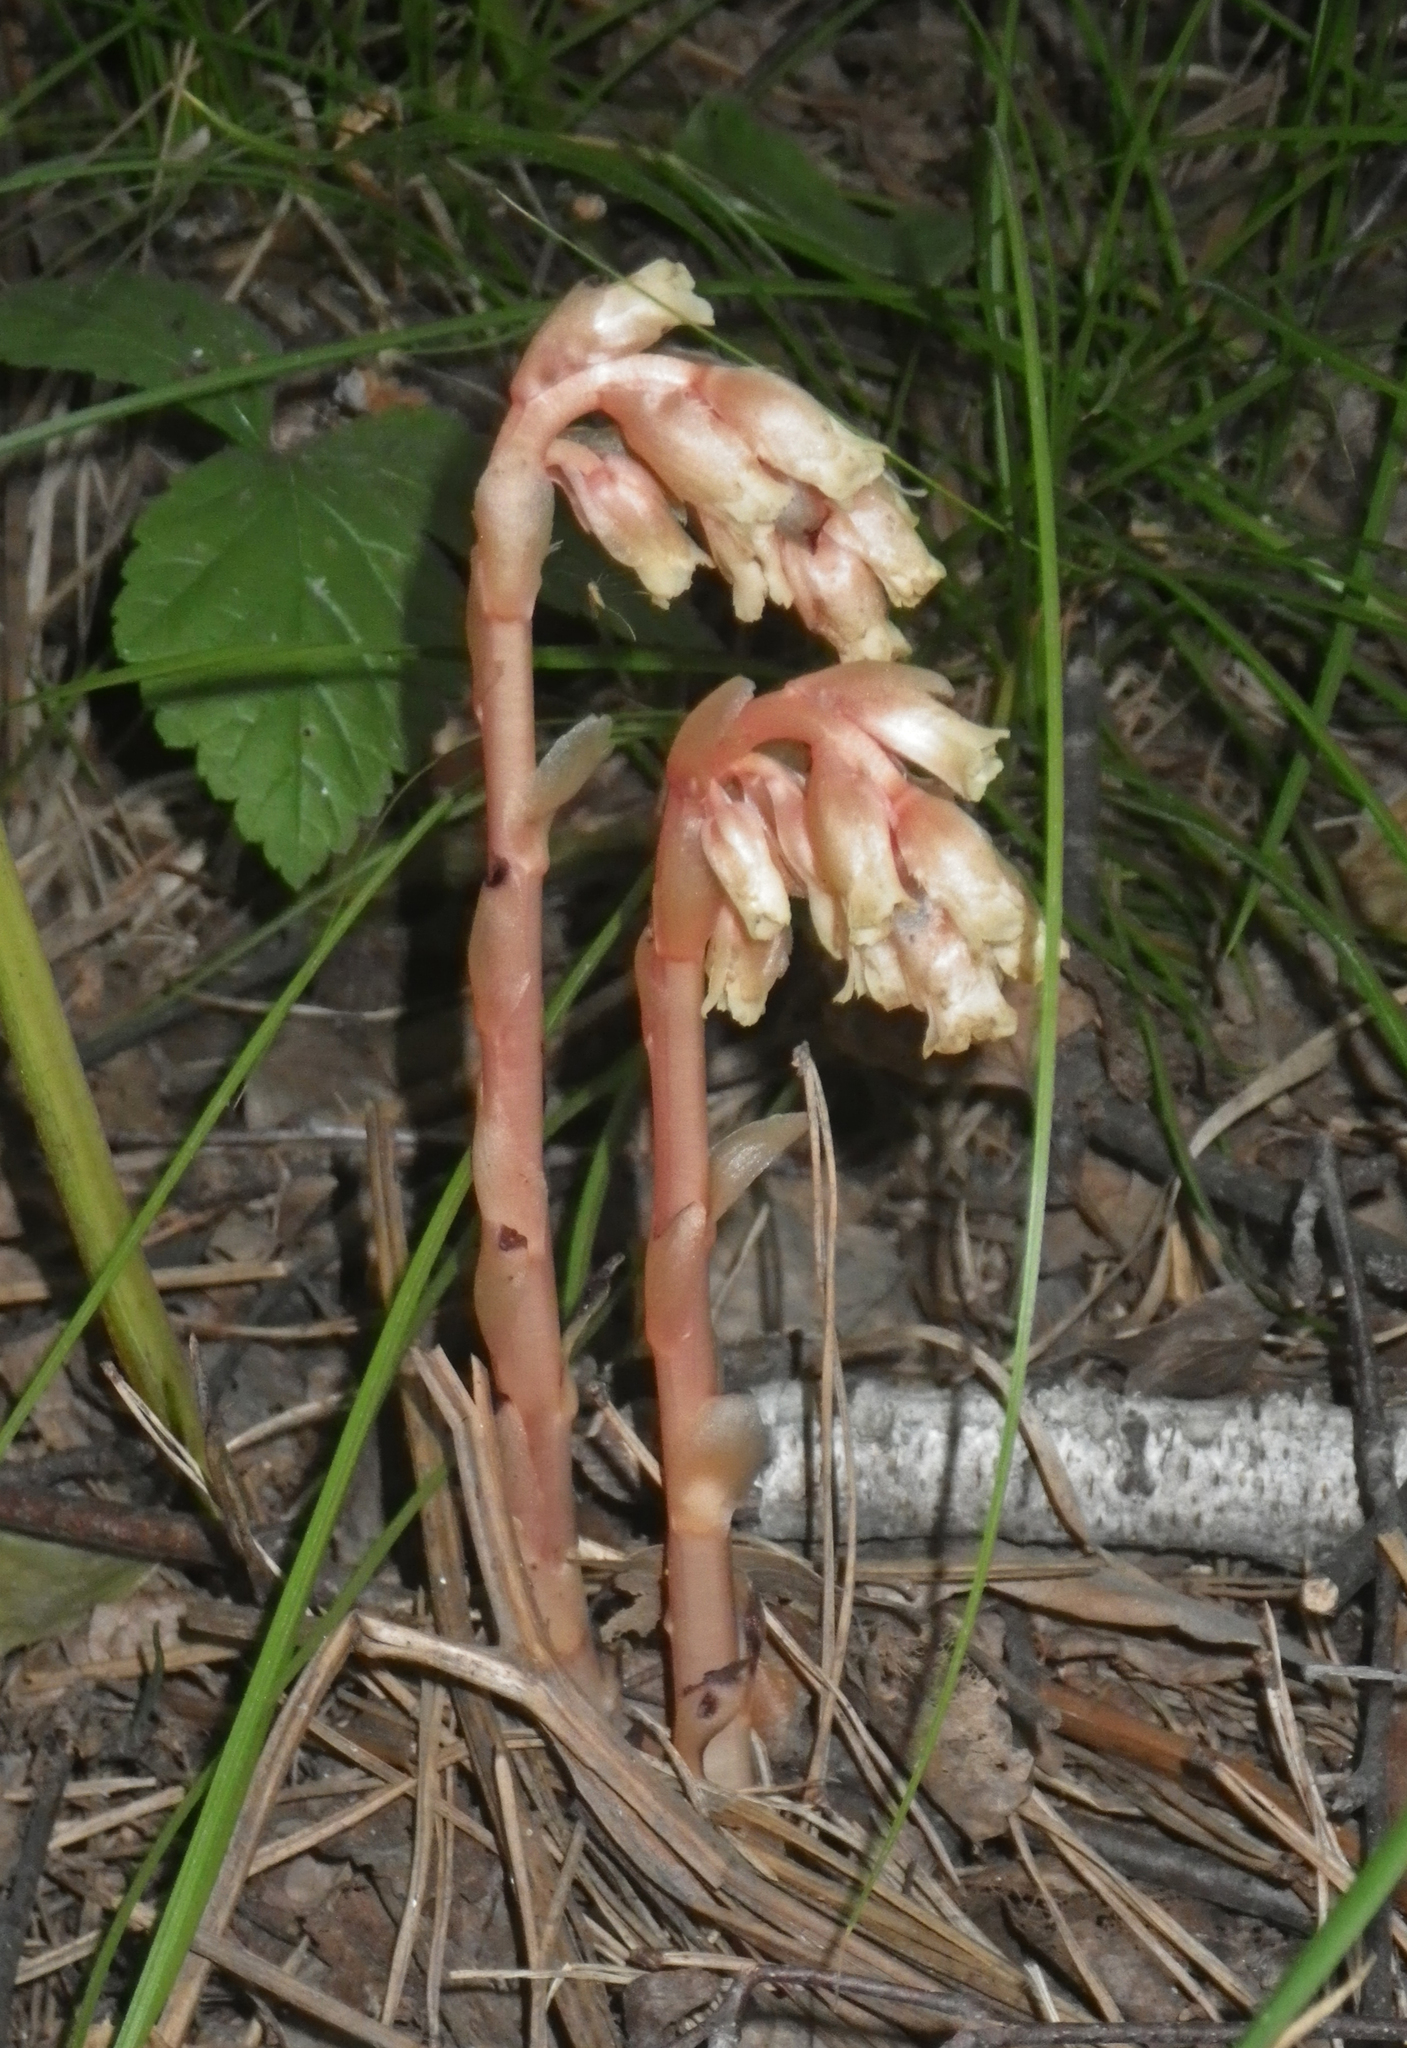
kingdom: Plantae
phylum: Tracheophyta
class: Magnoliopsida
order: Ericales
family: Ericaceae
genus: Hypopitys
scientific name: Hypopitys monotropa
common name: Yellow bird's-nest
